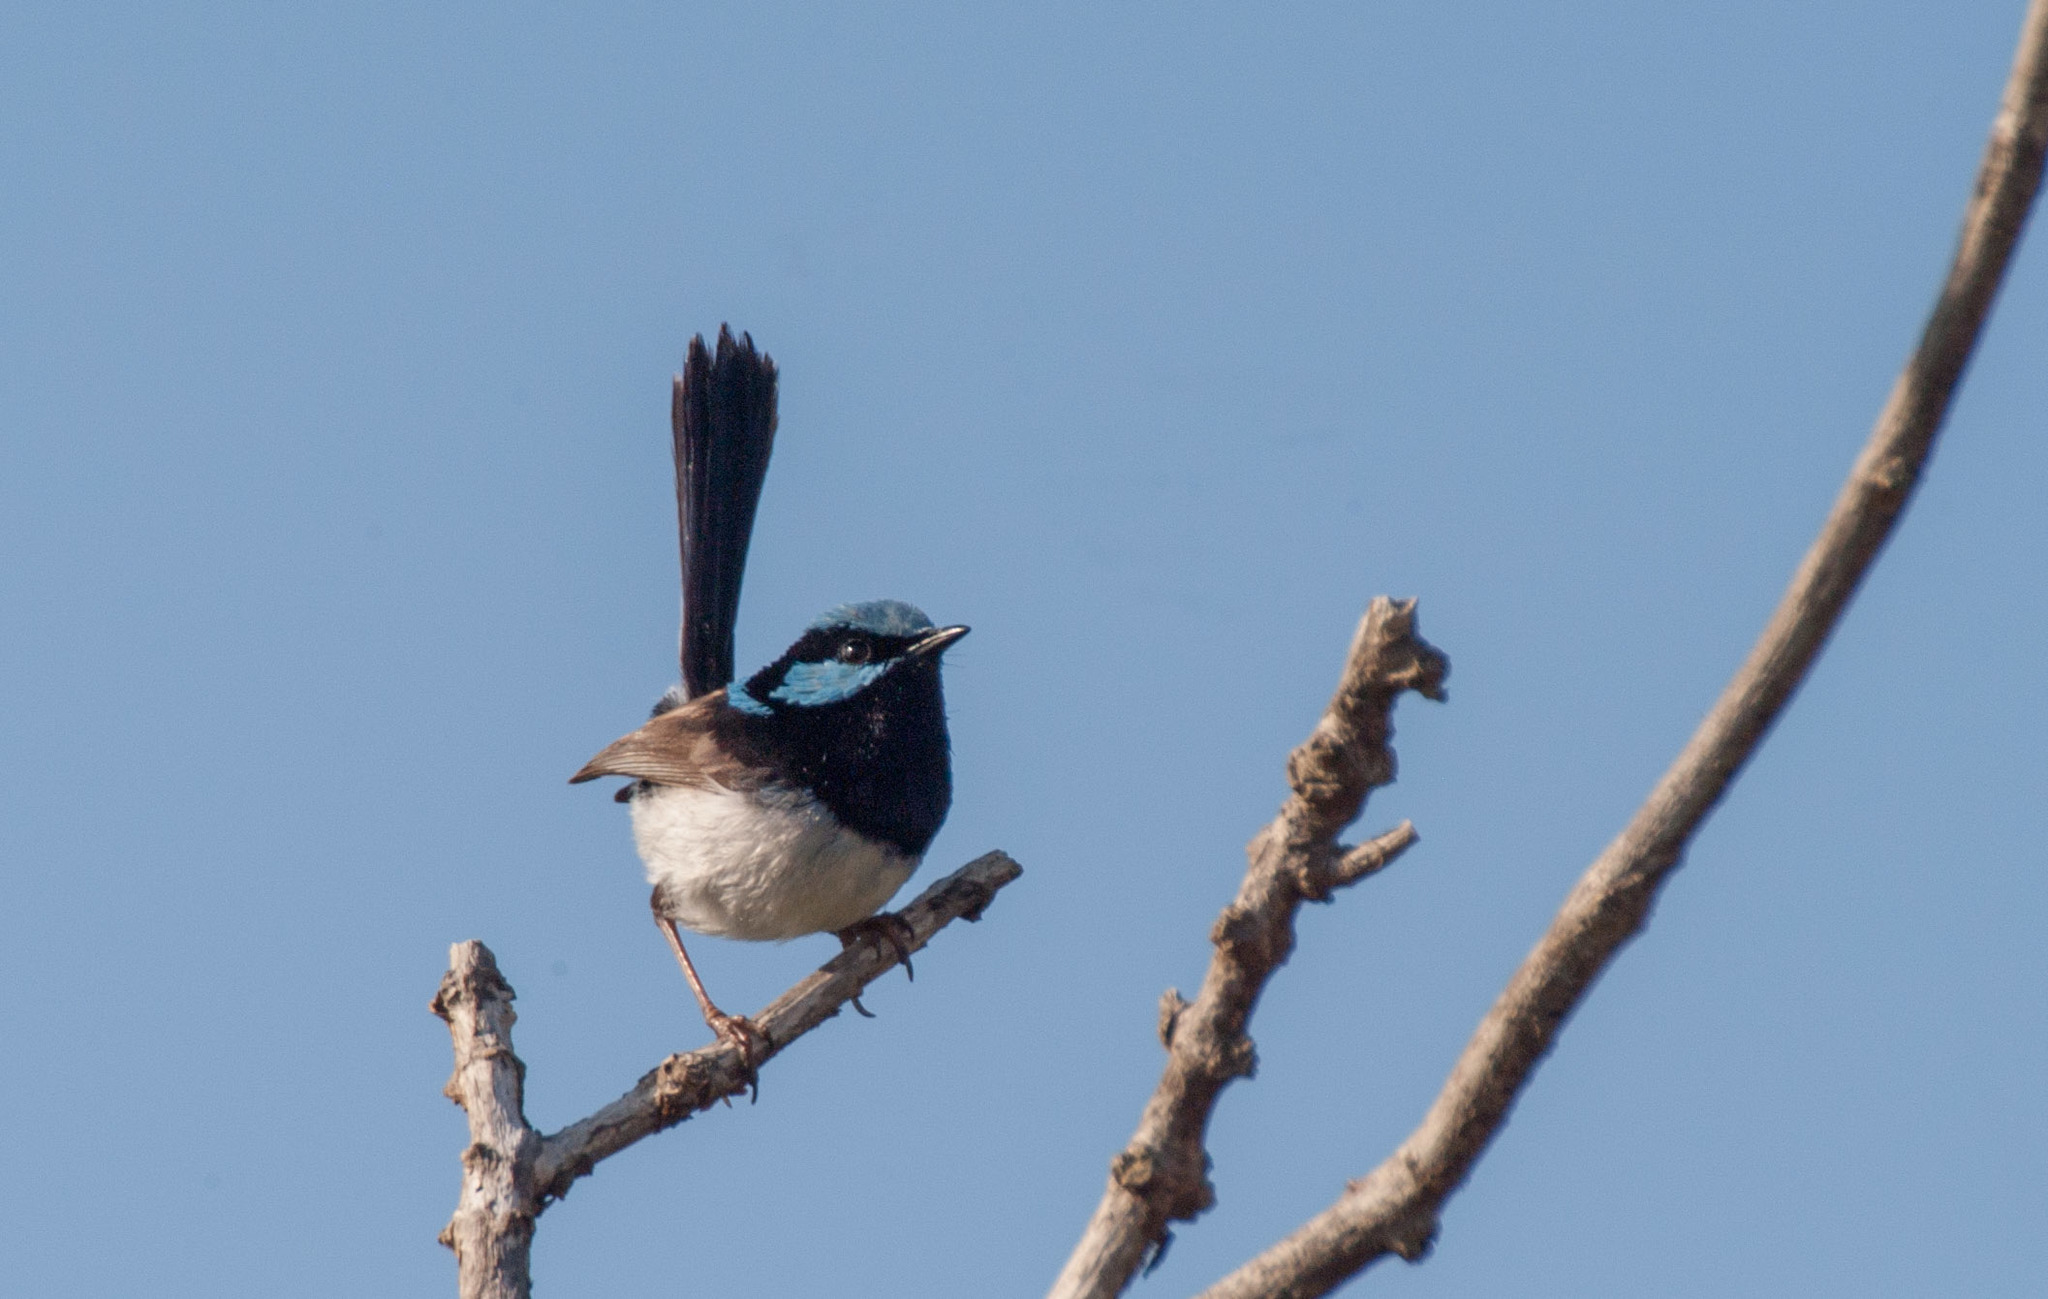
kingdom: Animalia
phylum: Chordata
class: Aves
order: Passeriformes
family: Maluridae
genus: Malurus
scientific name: Malurus cyaneus
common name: Superb fairywren
